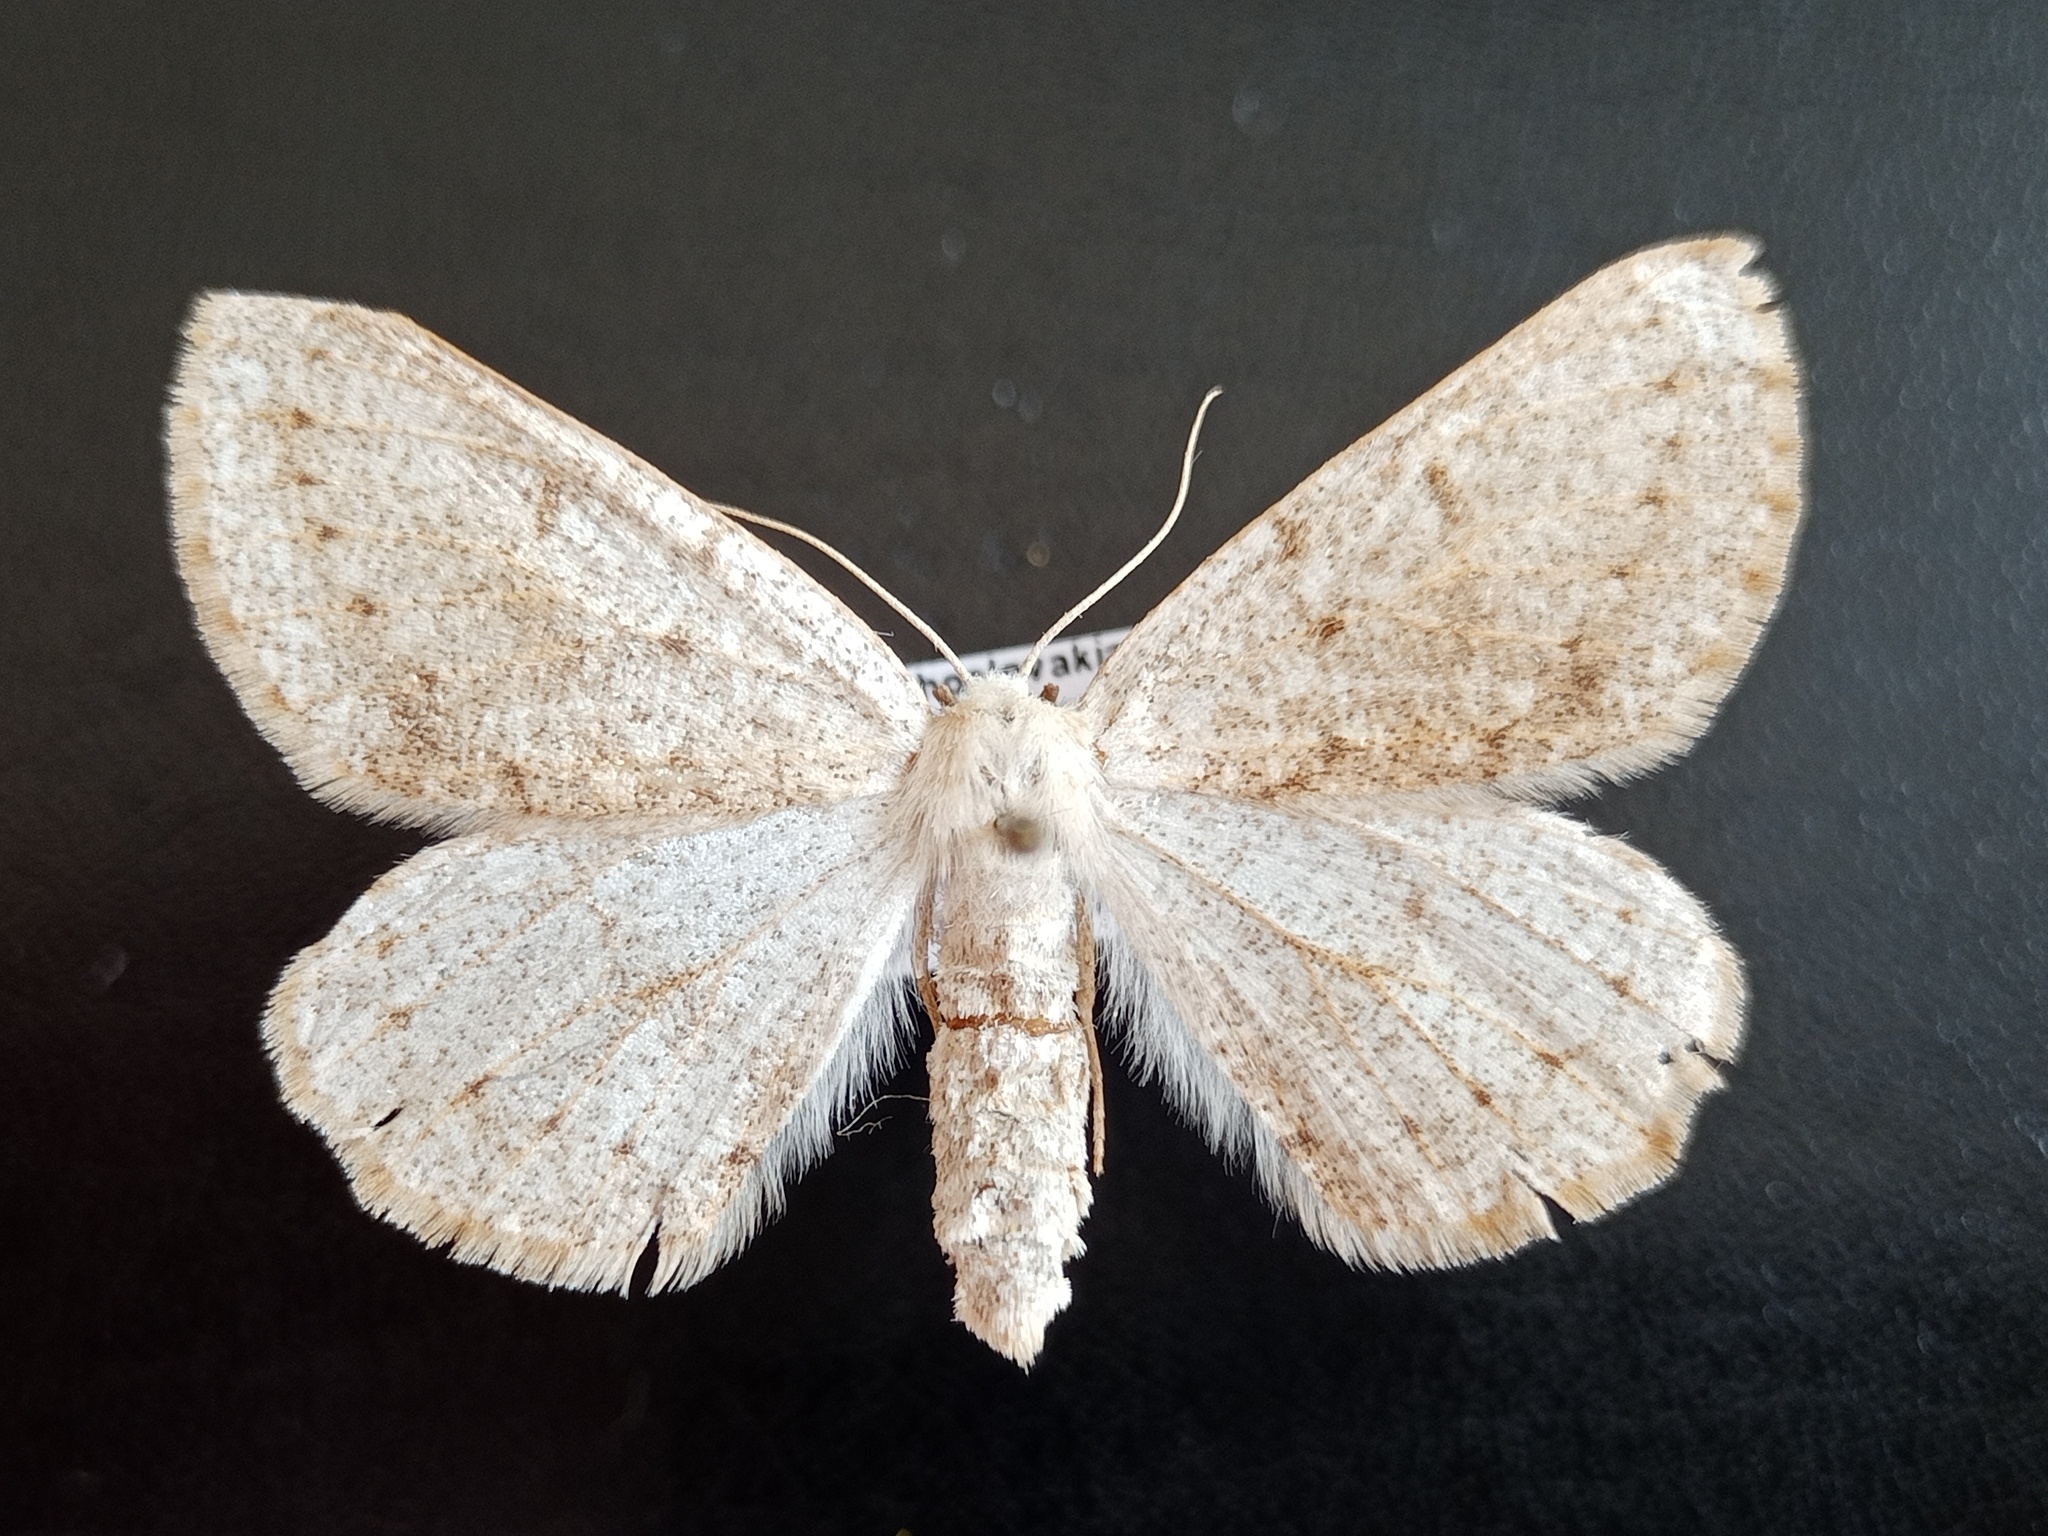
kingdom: Animalia
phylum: Arthropoda
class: Insecta
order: Lepidoptera
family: Geometridae
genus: Dyscia
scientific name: Dyscia conspersaria
